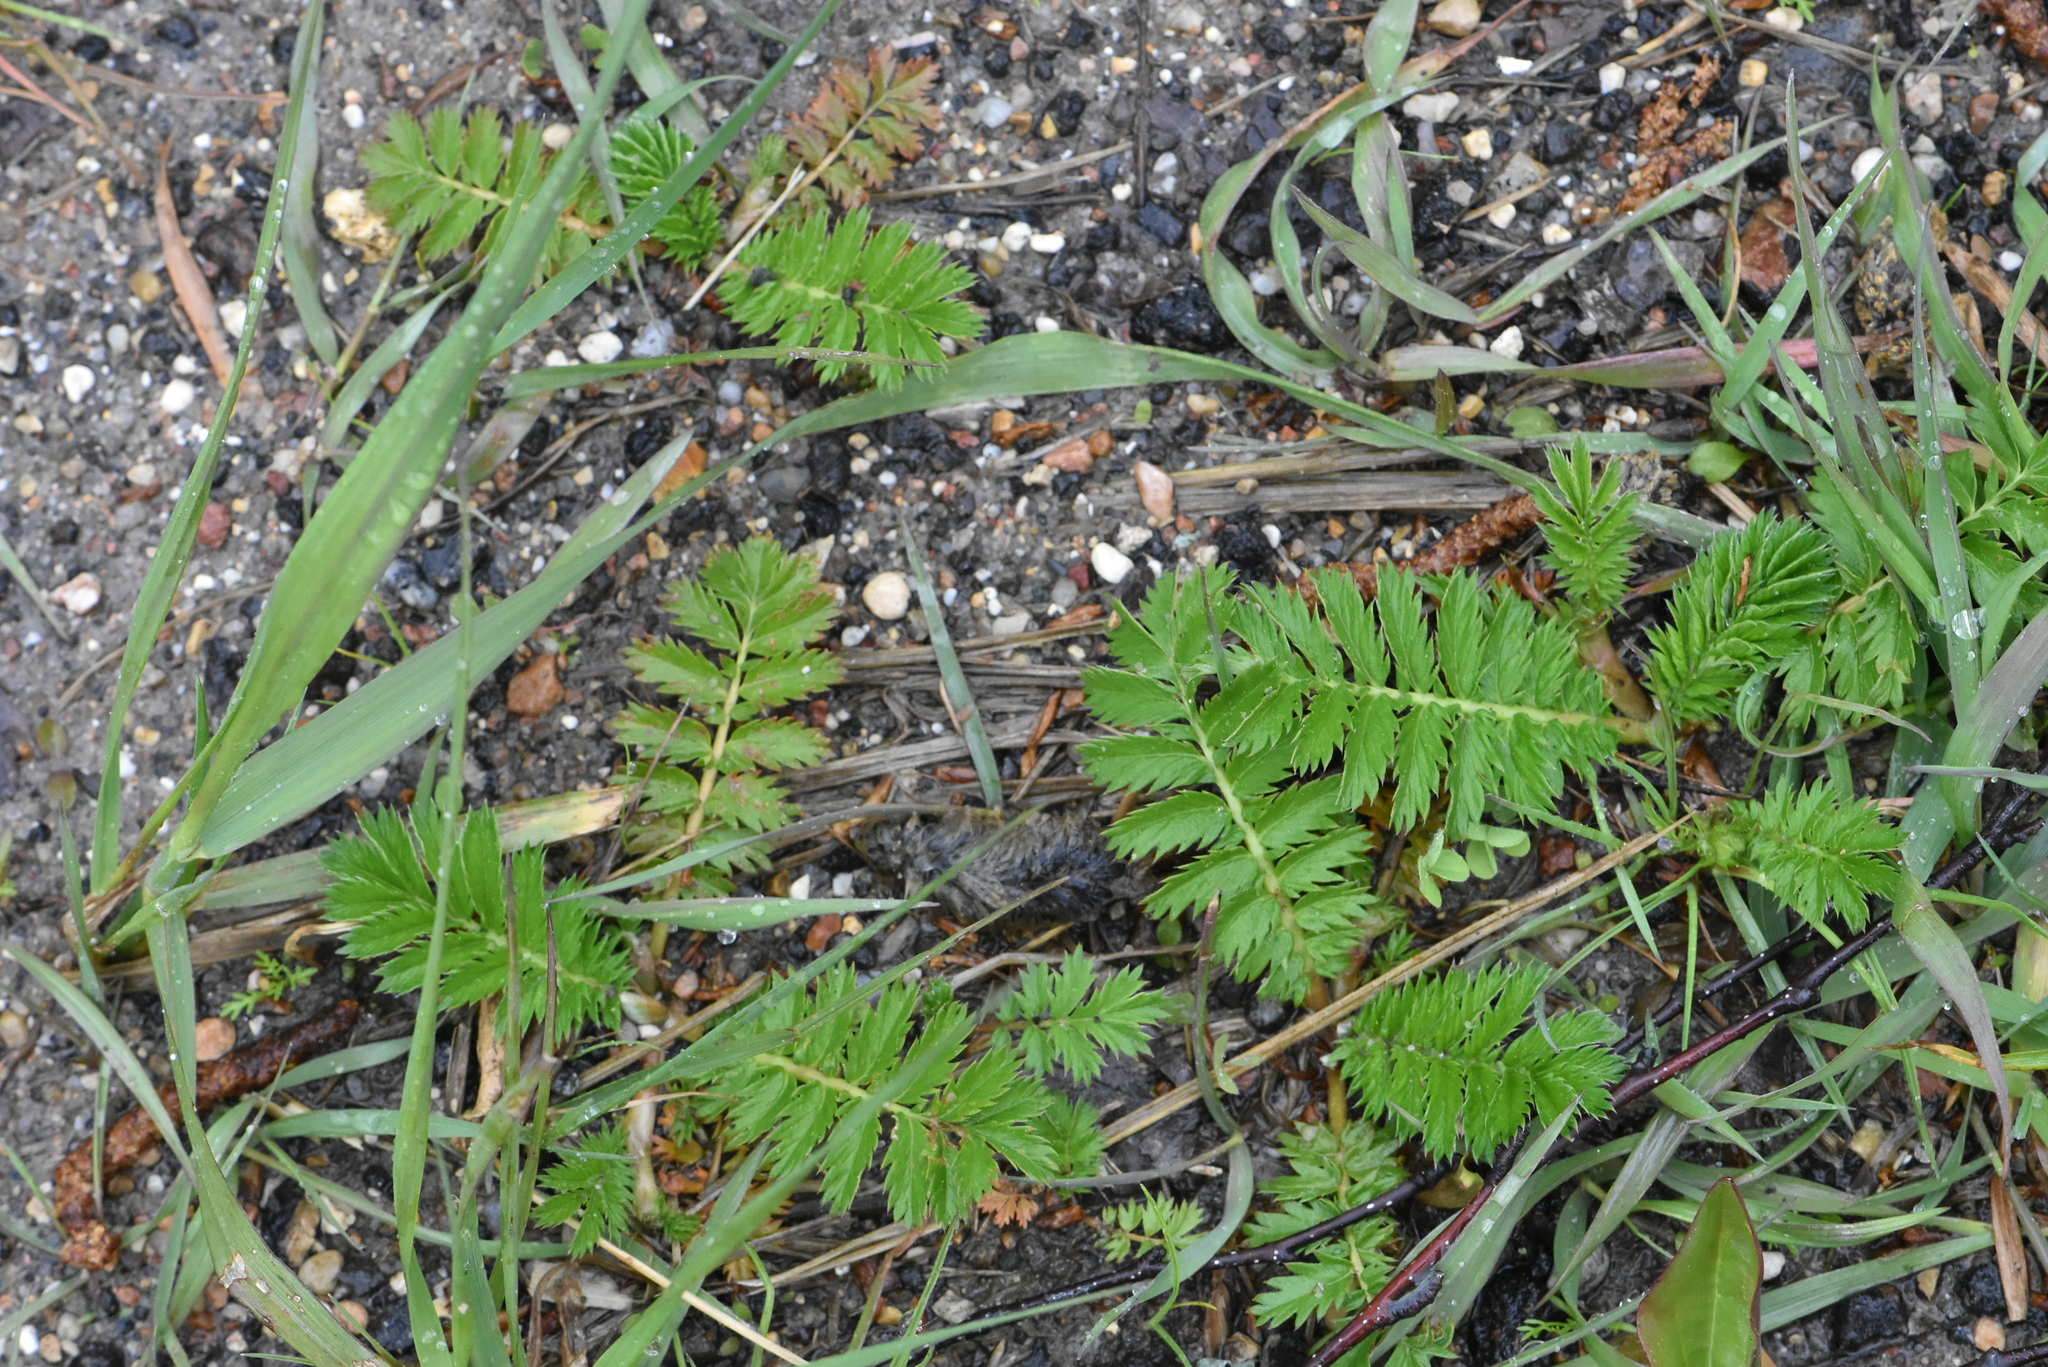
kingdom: Plantae
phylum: Tracheophyta
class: Magnoliopsida
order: Rosales
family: Rosaceae
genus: Argentina
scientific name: Argentina anserina
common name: Common silverweed
